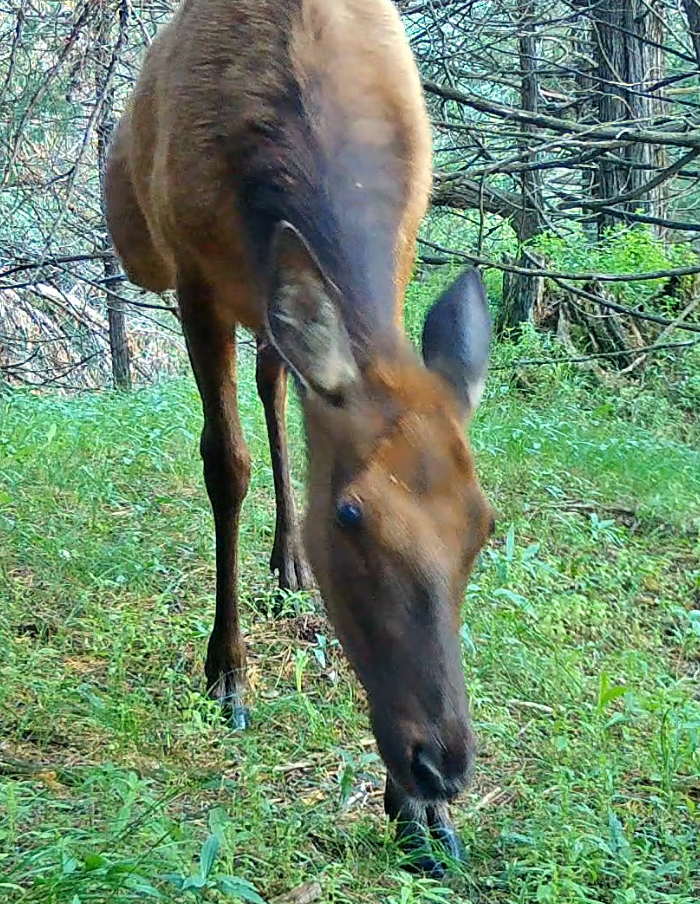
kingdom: Animalia
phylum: Chordata
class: Mammalia
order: Artiodactyla
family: Cervidae
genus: Cervus
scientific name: Cervus elaphus
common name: Red deer
